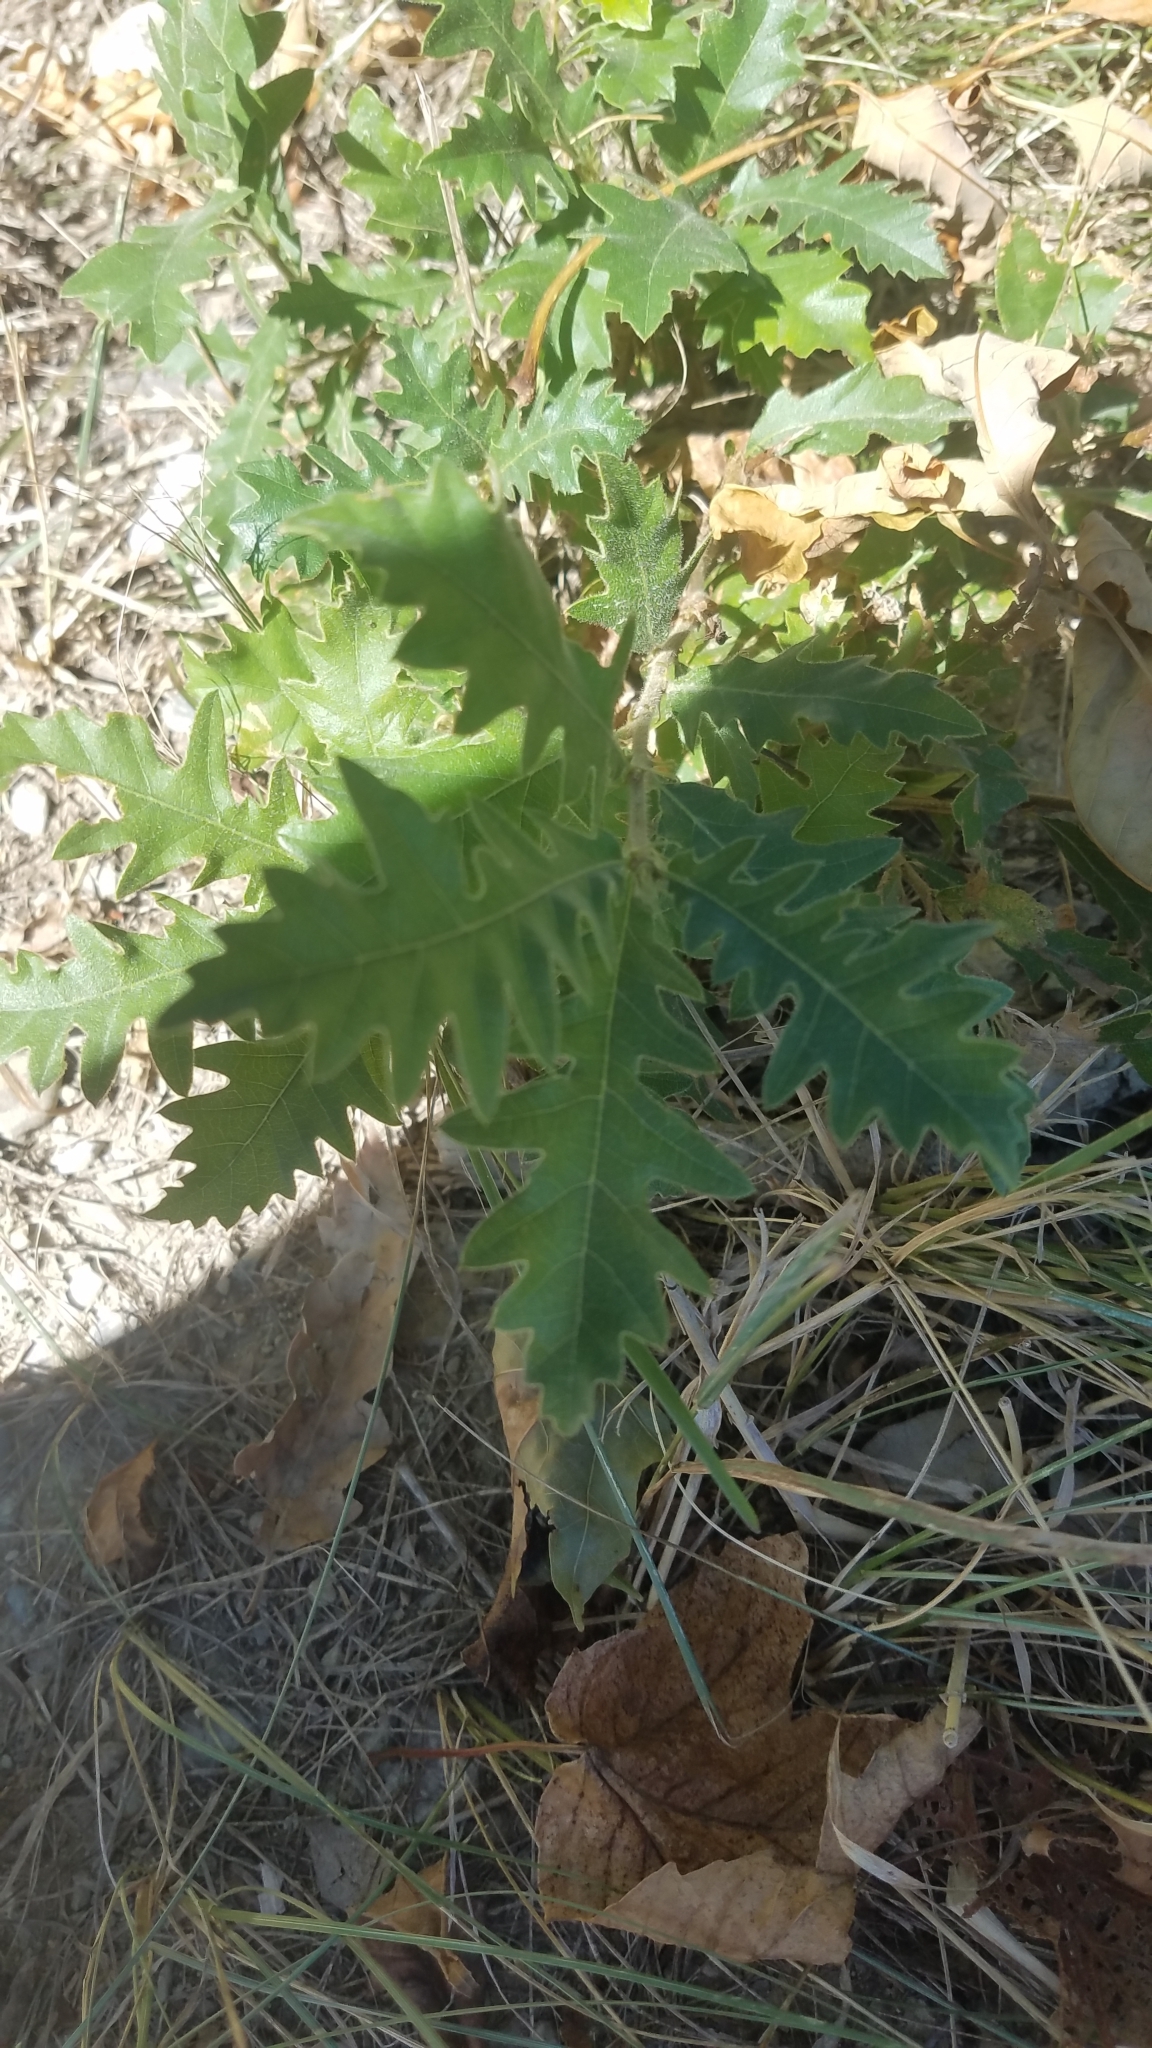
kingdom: Plantae
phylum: Tracheophyta
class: Magnoliopsida
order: Fagales
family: Fagaceae
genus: Quercus
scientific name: Quercus cerris
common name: Turkey oak
